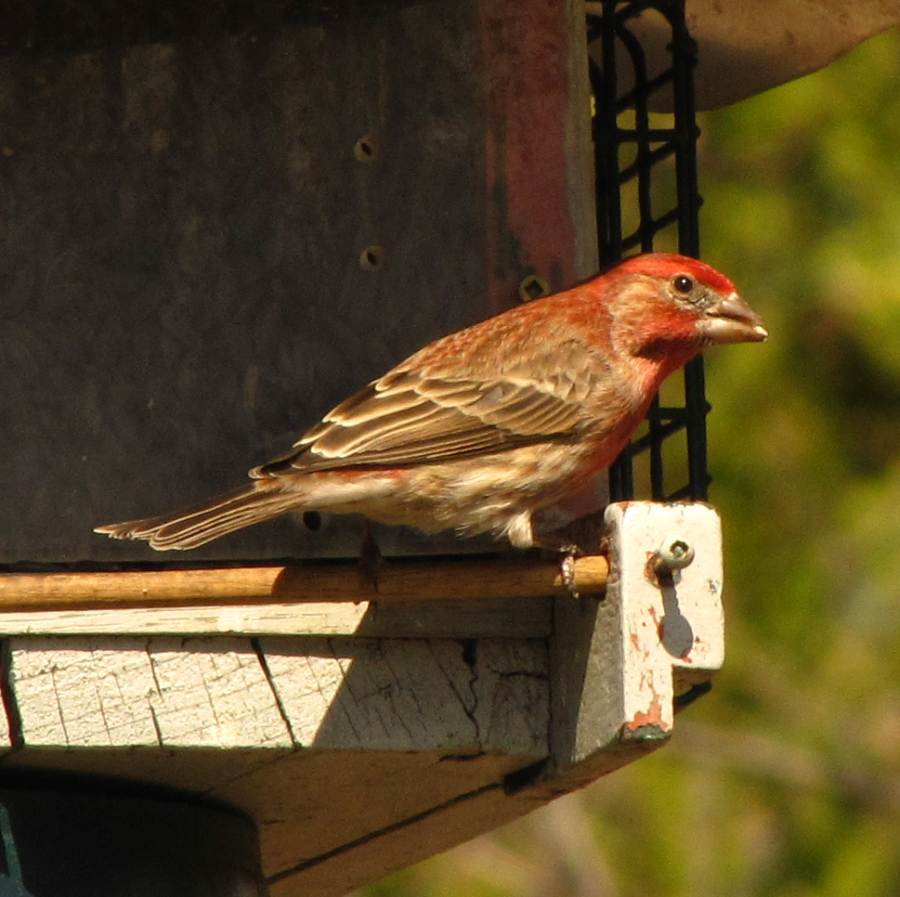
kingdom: Animalia
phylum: Chordata
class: Aves
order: Passeriformes
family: Fringillidae
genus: Haemorhous
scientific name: Haemorhous mexicanus
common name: House finch
